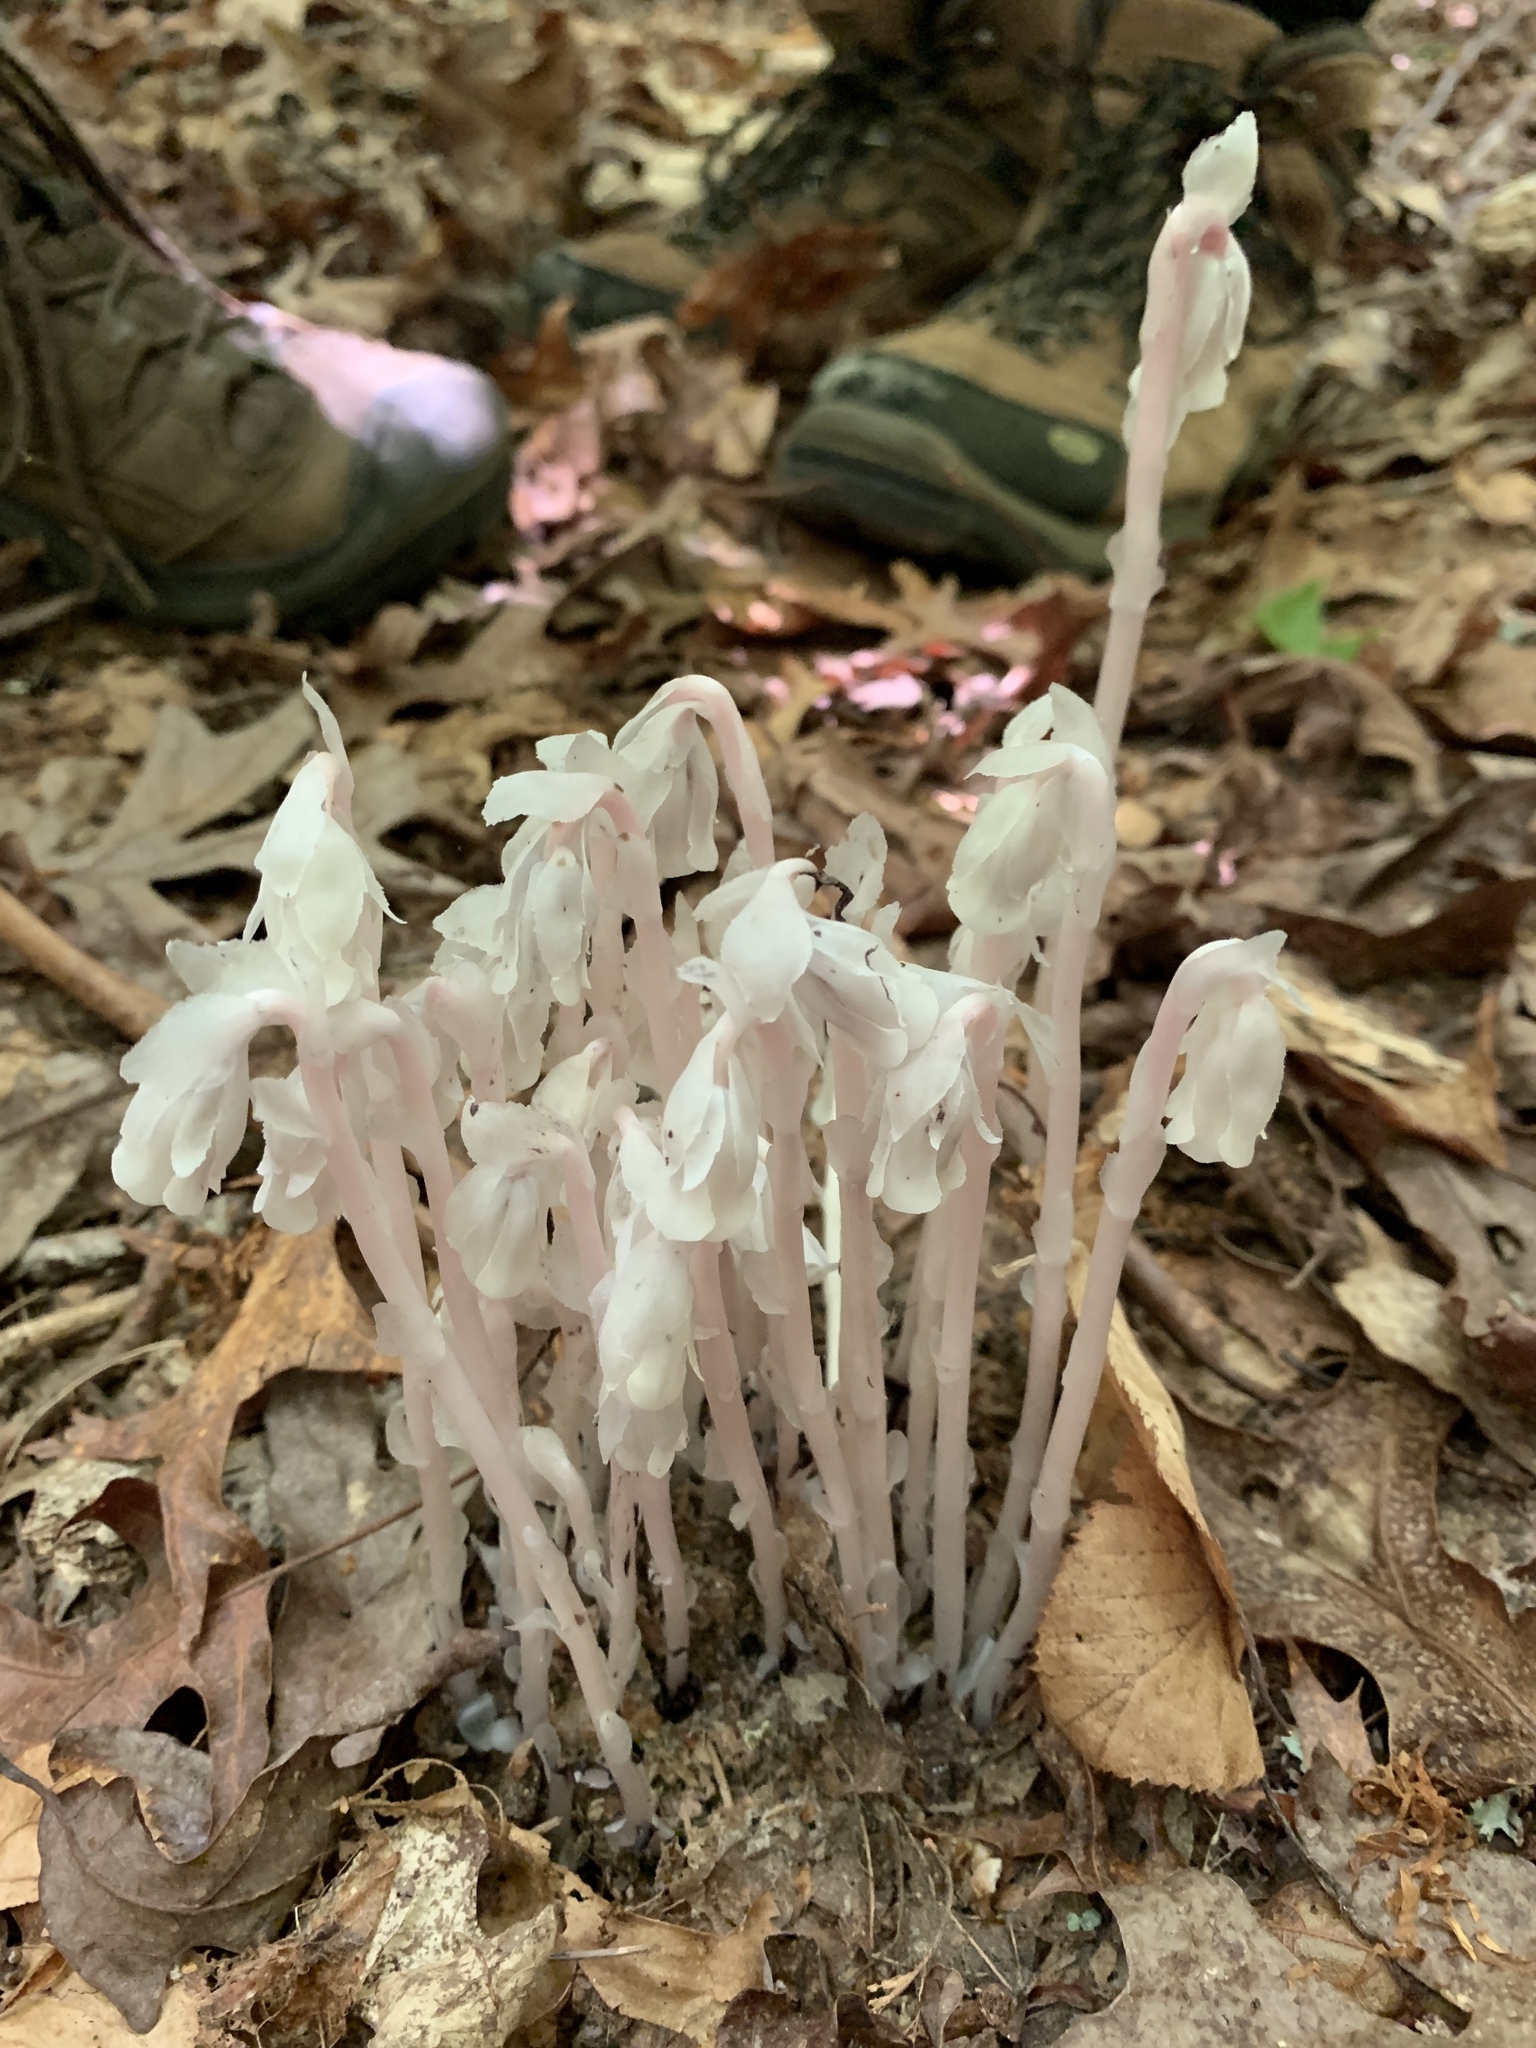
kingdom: Plantae
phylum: Tracheophyta
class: Magnoliopsida
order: Ericales
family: Ericaceae
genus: Monotropa
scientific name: Monotropa uniflora
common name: Convulsion root
